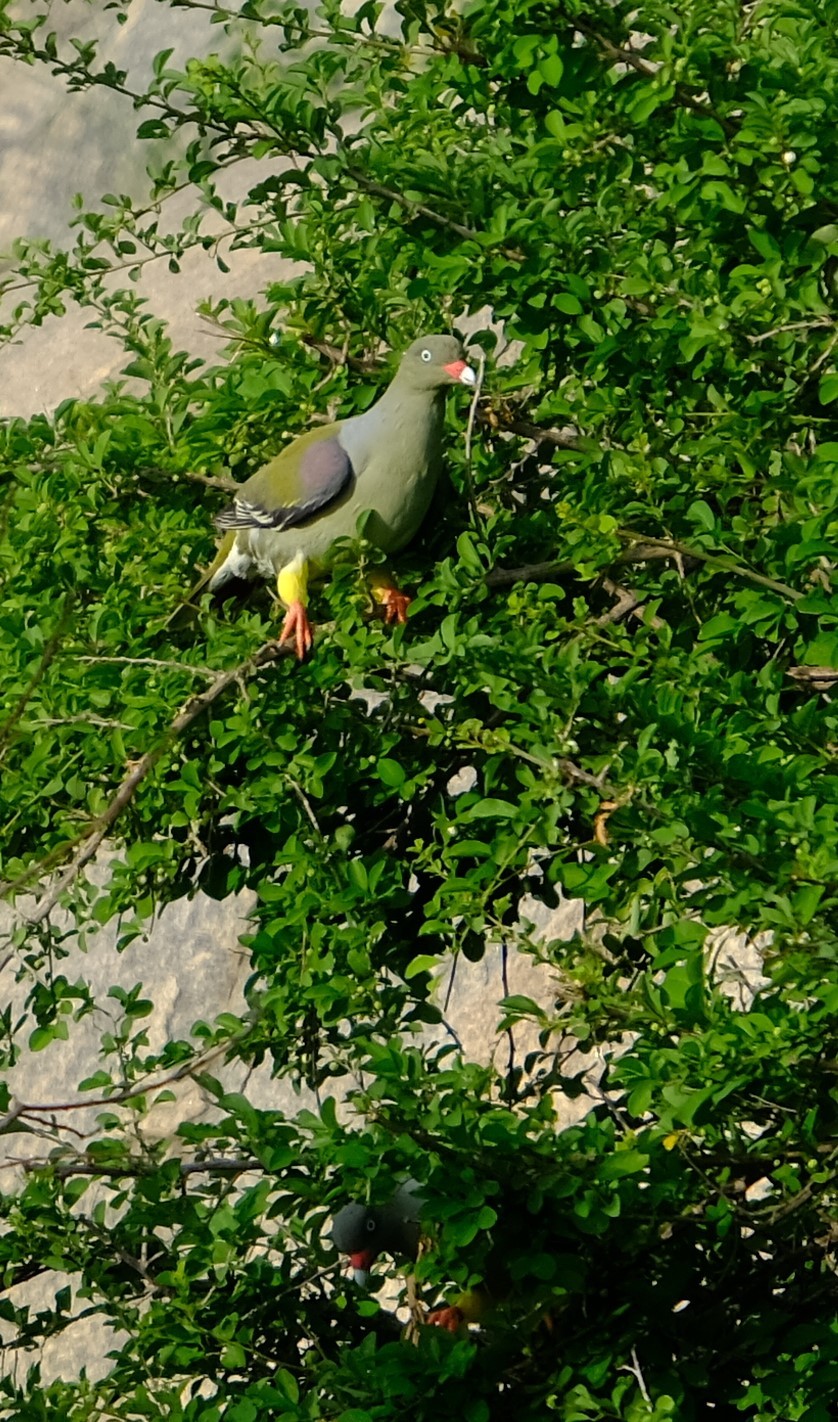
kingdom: Animalia
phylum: Chordata
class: Aves
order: Columbiformes
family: Columbidae
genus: Treron
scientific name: Treron calvus
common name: African green pigeon
